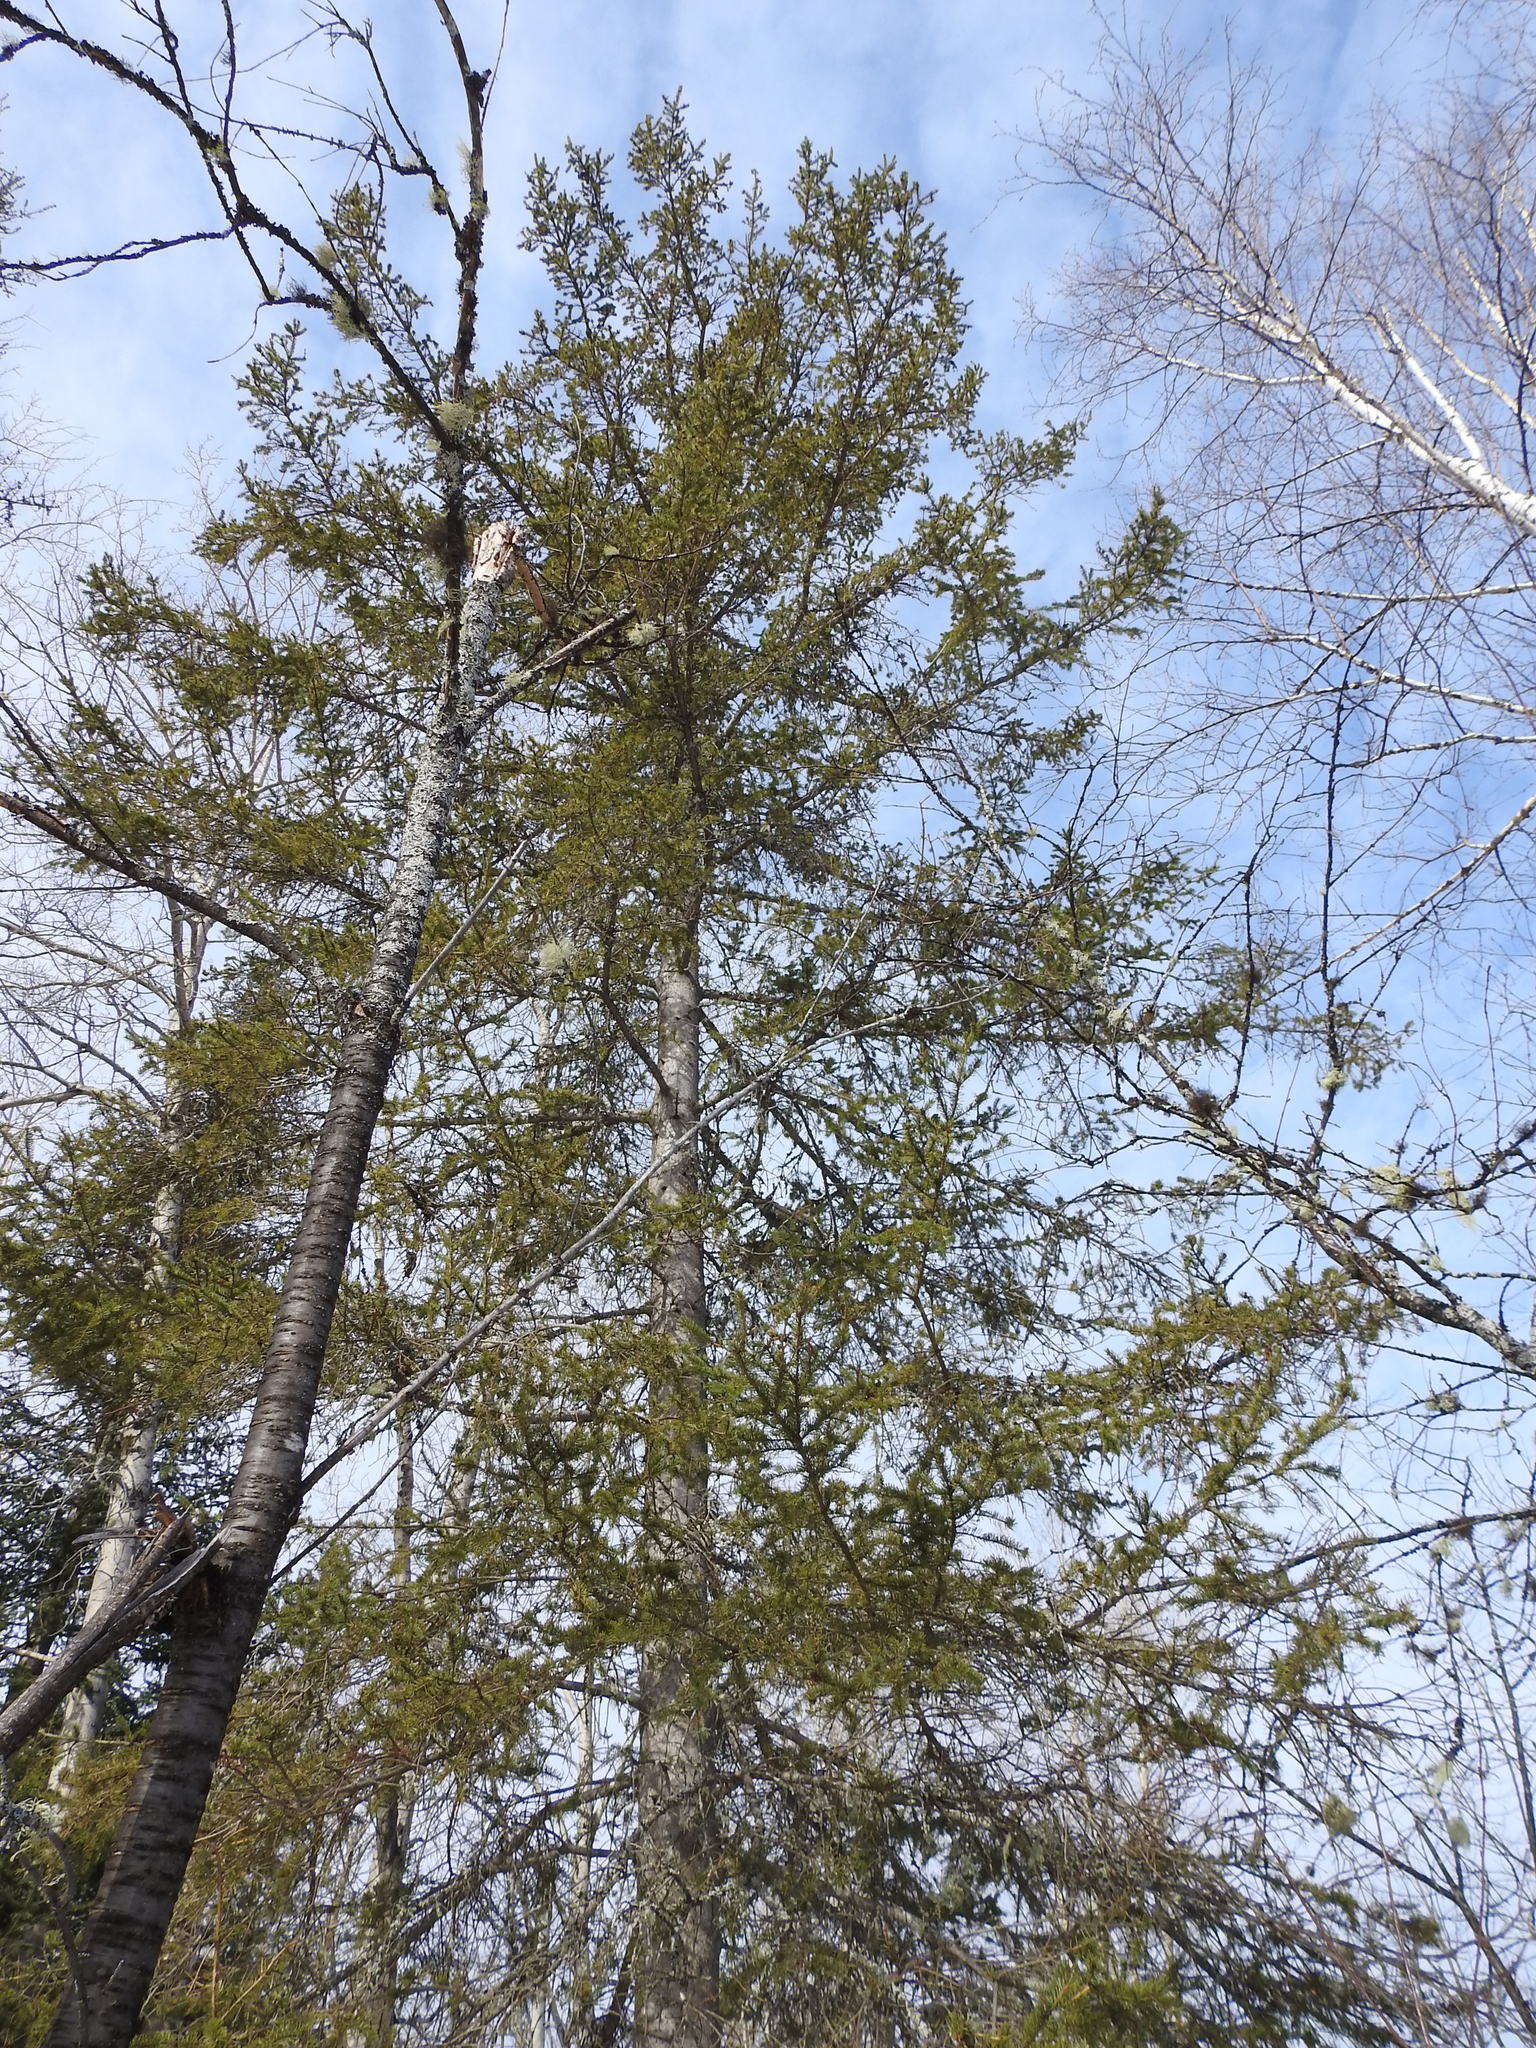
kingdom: Plantae
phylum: Tracheophyta
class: Pinopsida
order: Pinales
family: Pinaceae
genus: Picea
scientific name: Picea glauca
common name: White spruce
